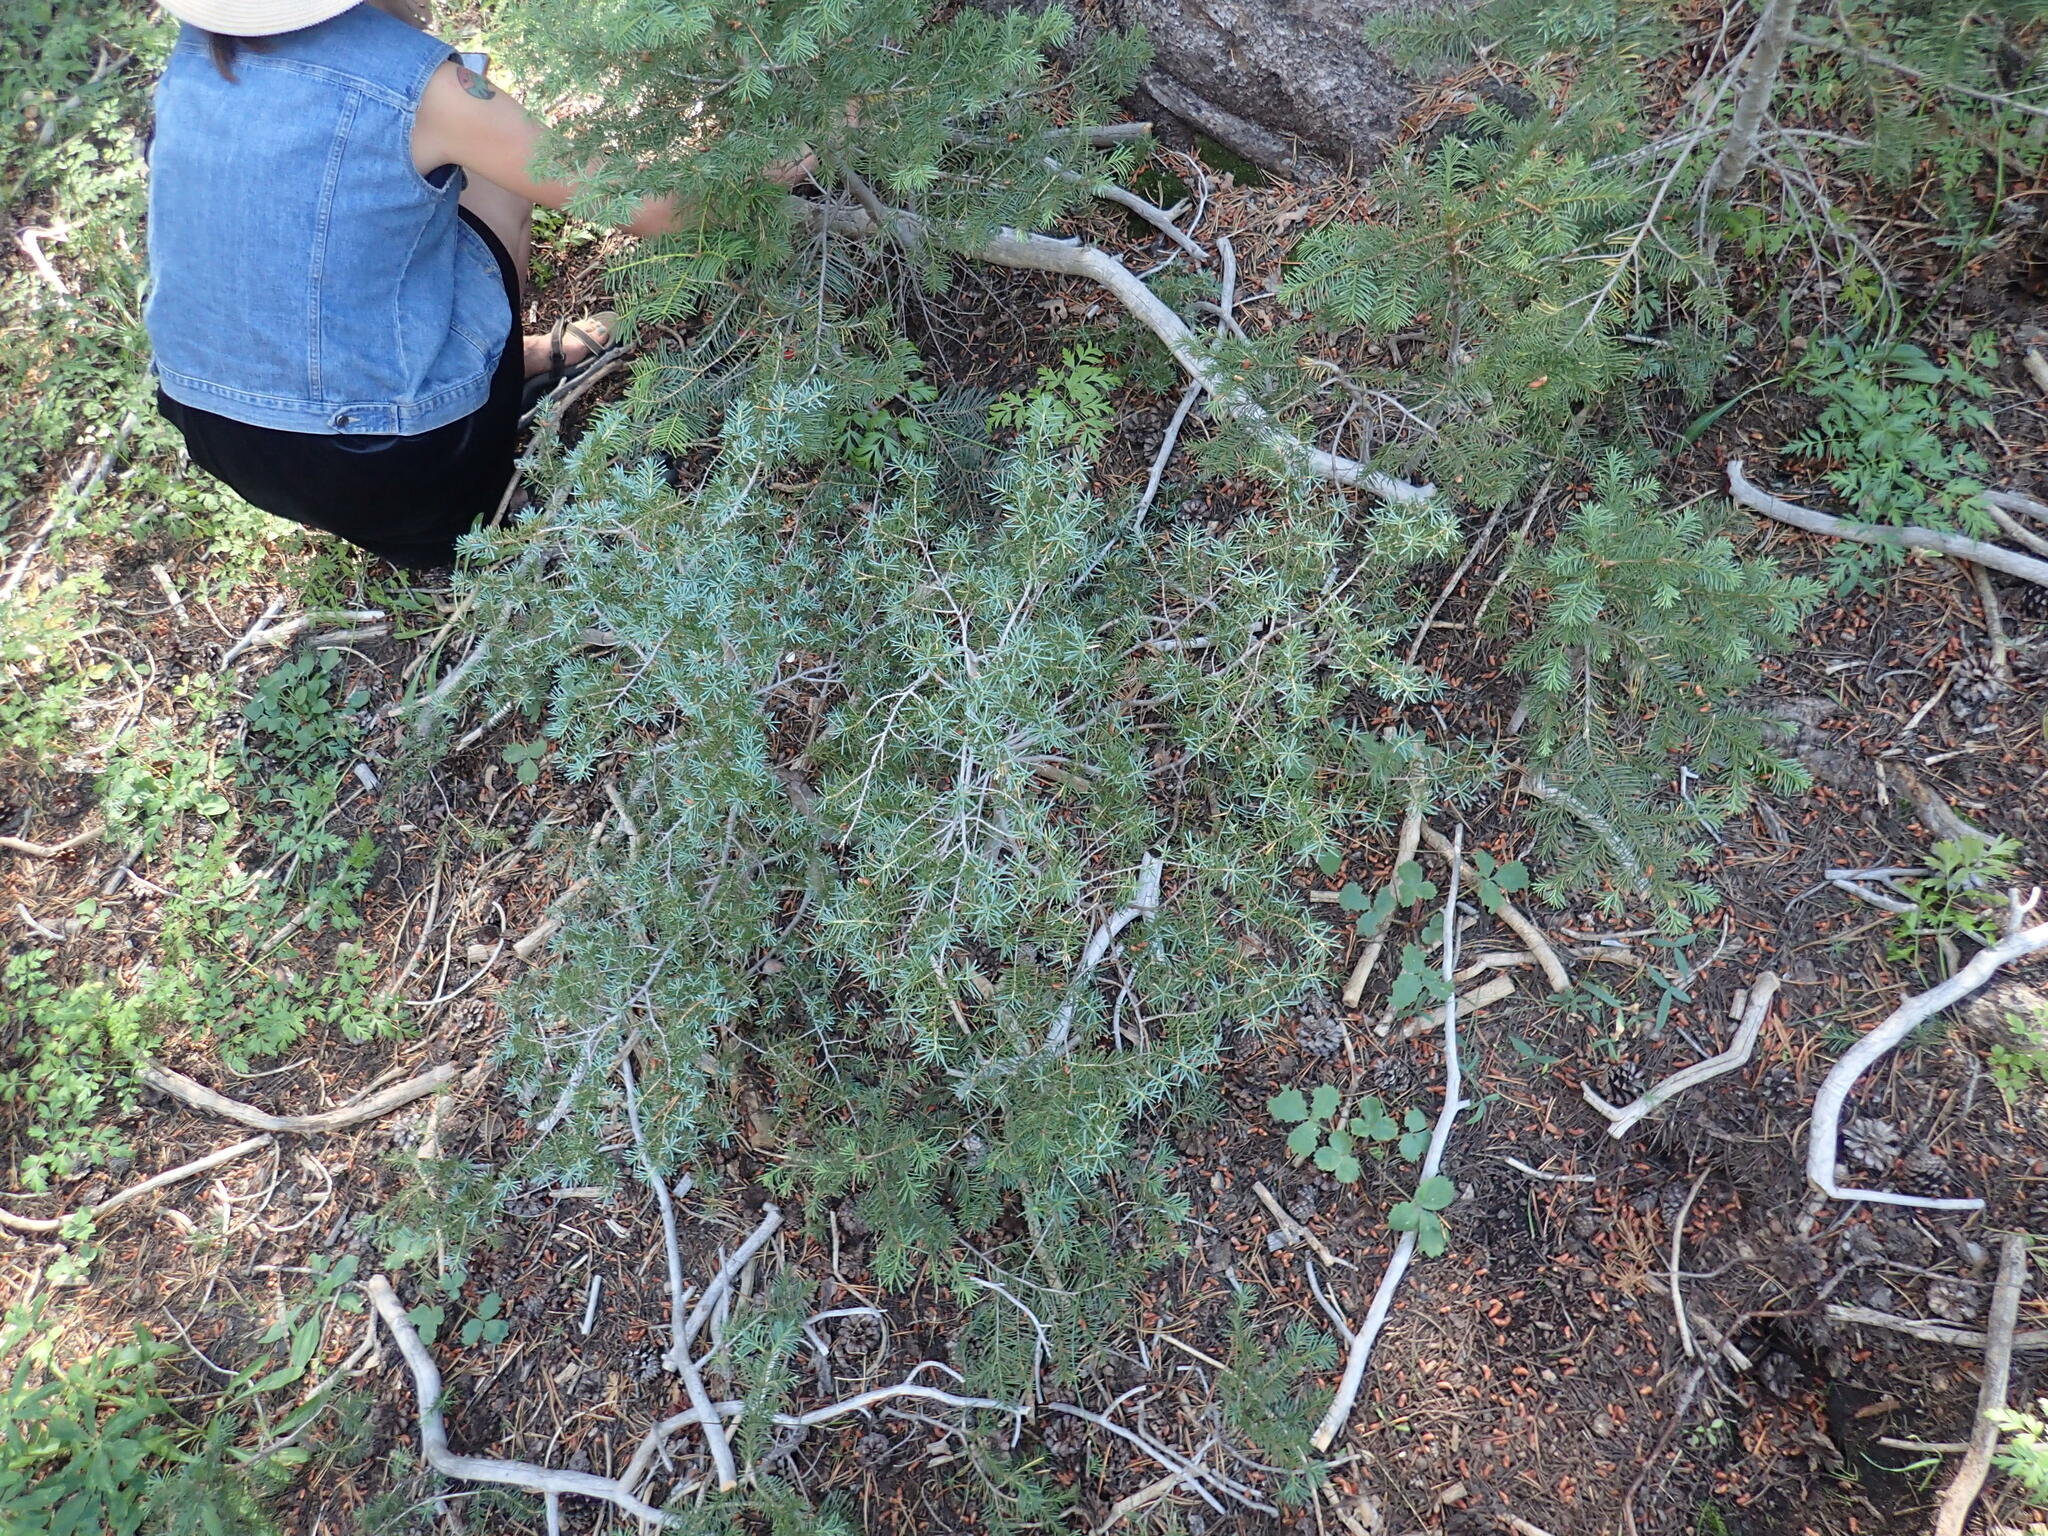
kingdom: Plantae
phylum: Tracheophyta
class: Pinopsida
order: Pinales
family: Pinaceae
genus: Tsuga
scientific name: Tsuga mertensiana
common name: Mountain hemlock
